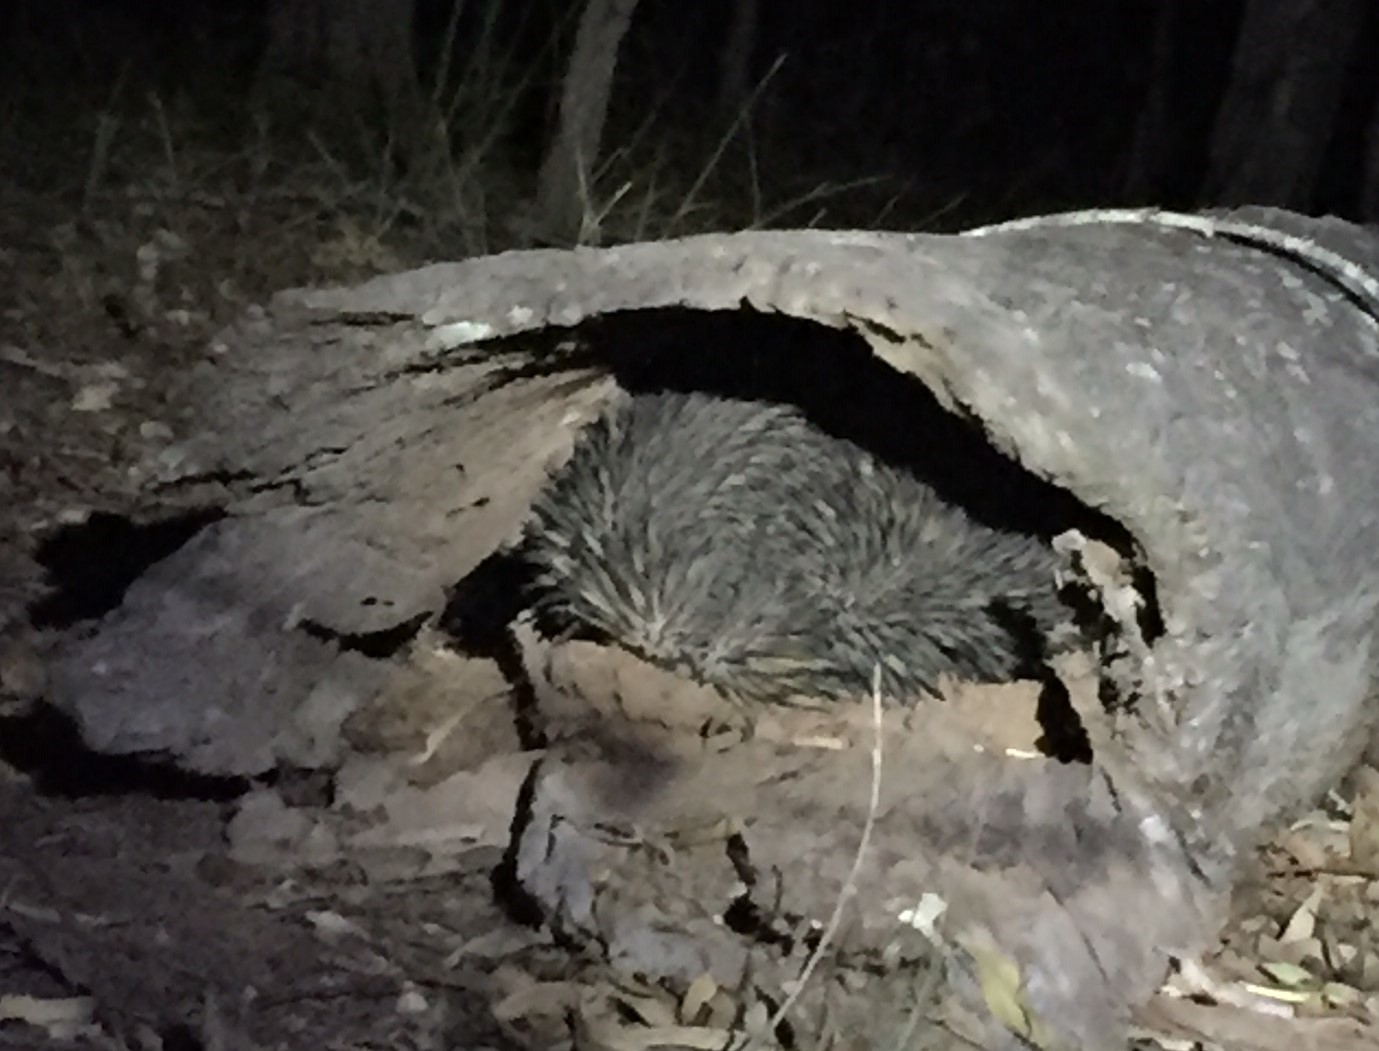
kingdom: Animalia
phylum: Chordata
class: Mammalia
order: Monotremata
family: Tachyglossidae
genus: Tachyglossus
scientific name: Tachyglossus aculeatus
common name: Short-beaked echidna
